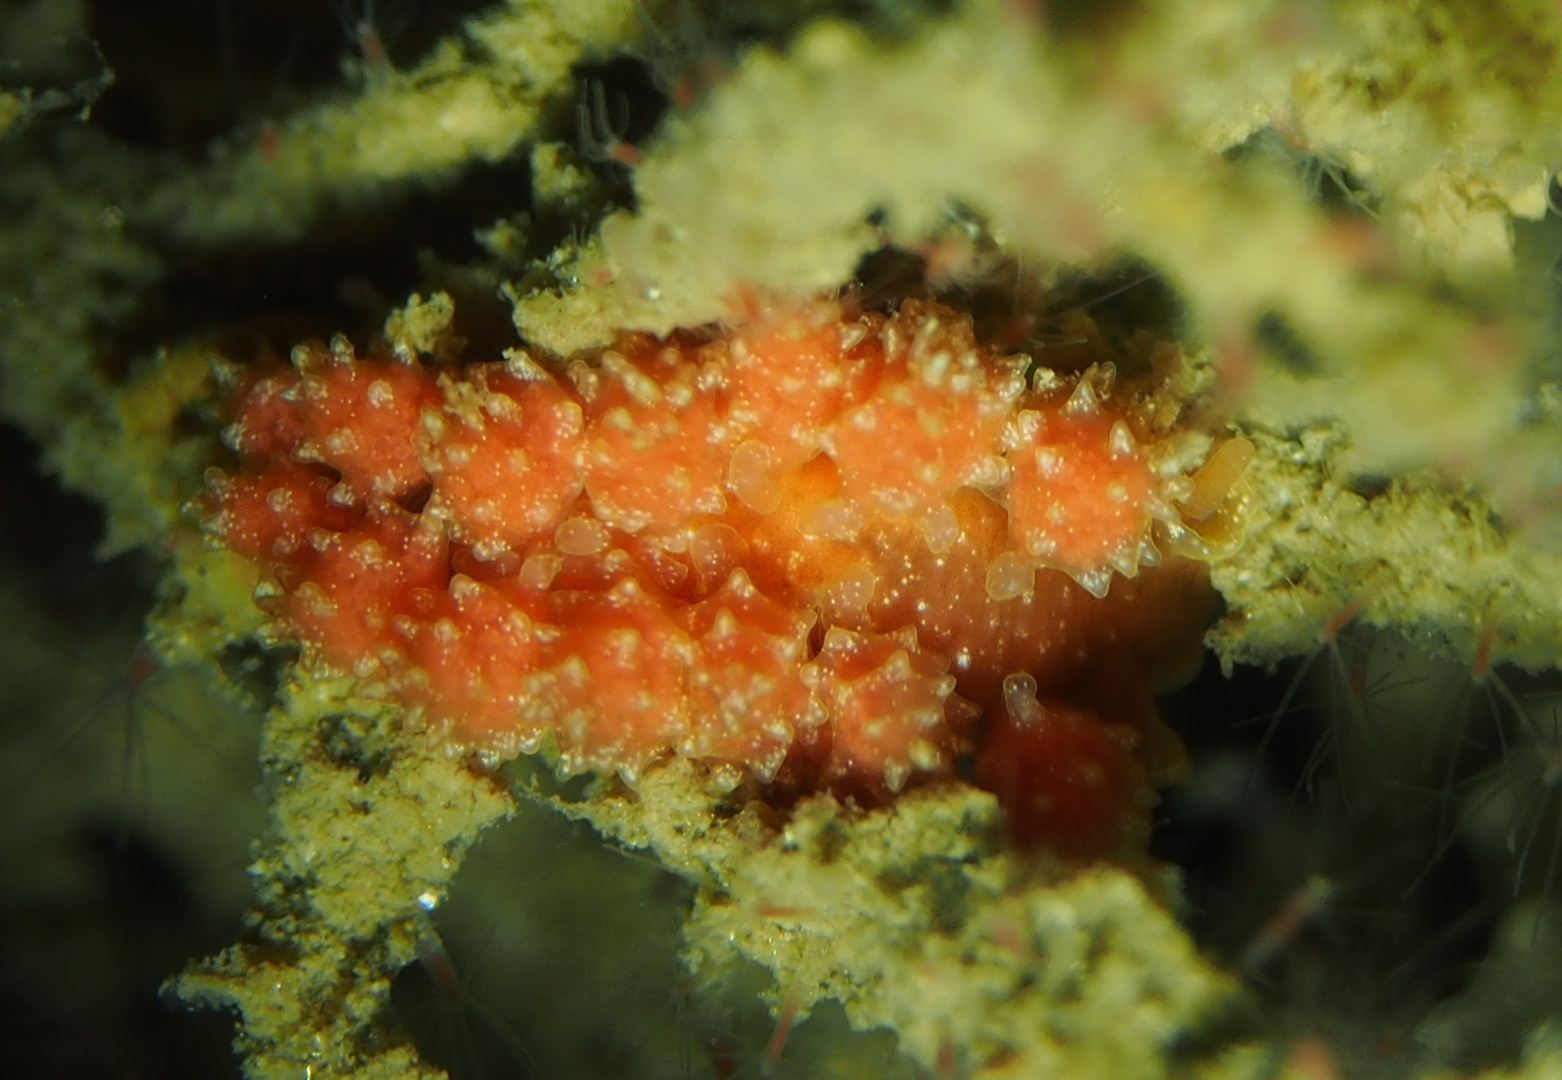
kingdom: Animalia
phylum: Mollusca
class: Gastropoda
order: Nudibranchia
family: Dotidae
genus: Doto
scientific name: Doto fragilis
